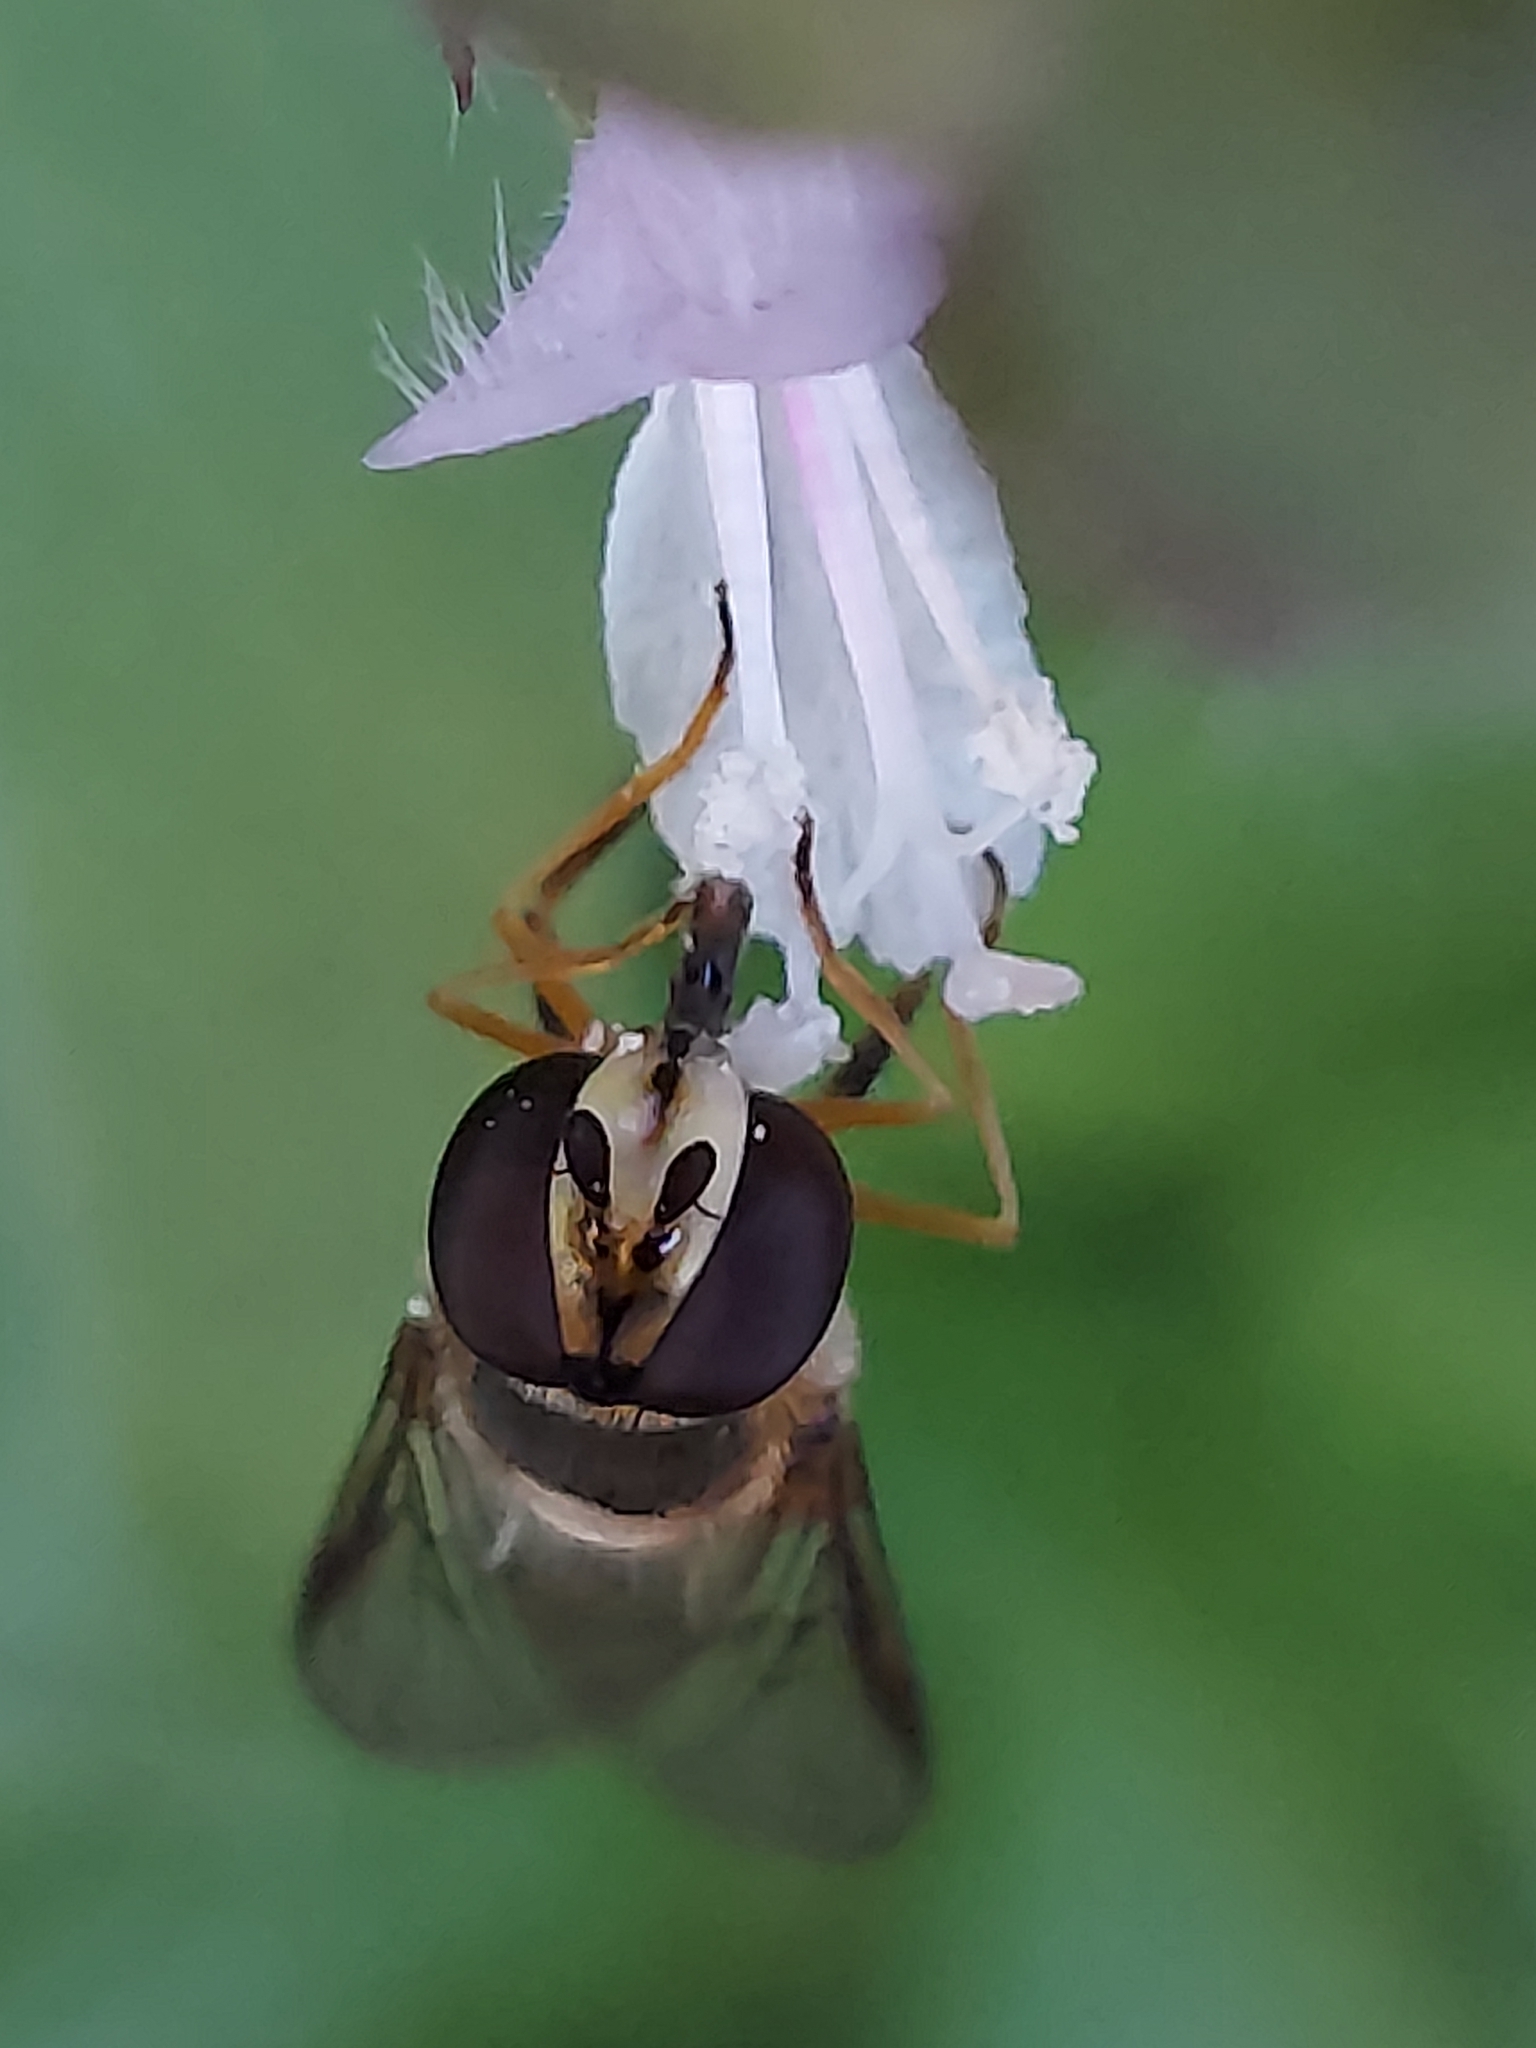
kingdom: Animalia
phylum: Arthropoda
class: Insecta
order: Diptera
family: Syrphidae
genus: Eupeodes
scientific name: Eupeodes
